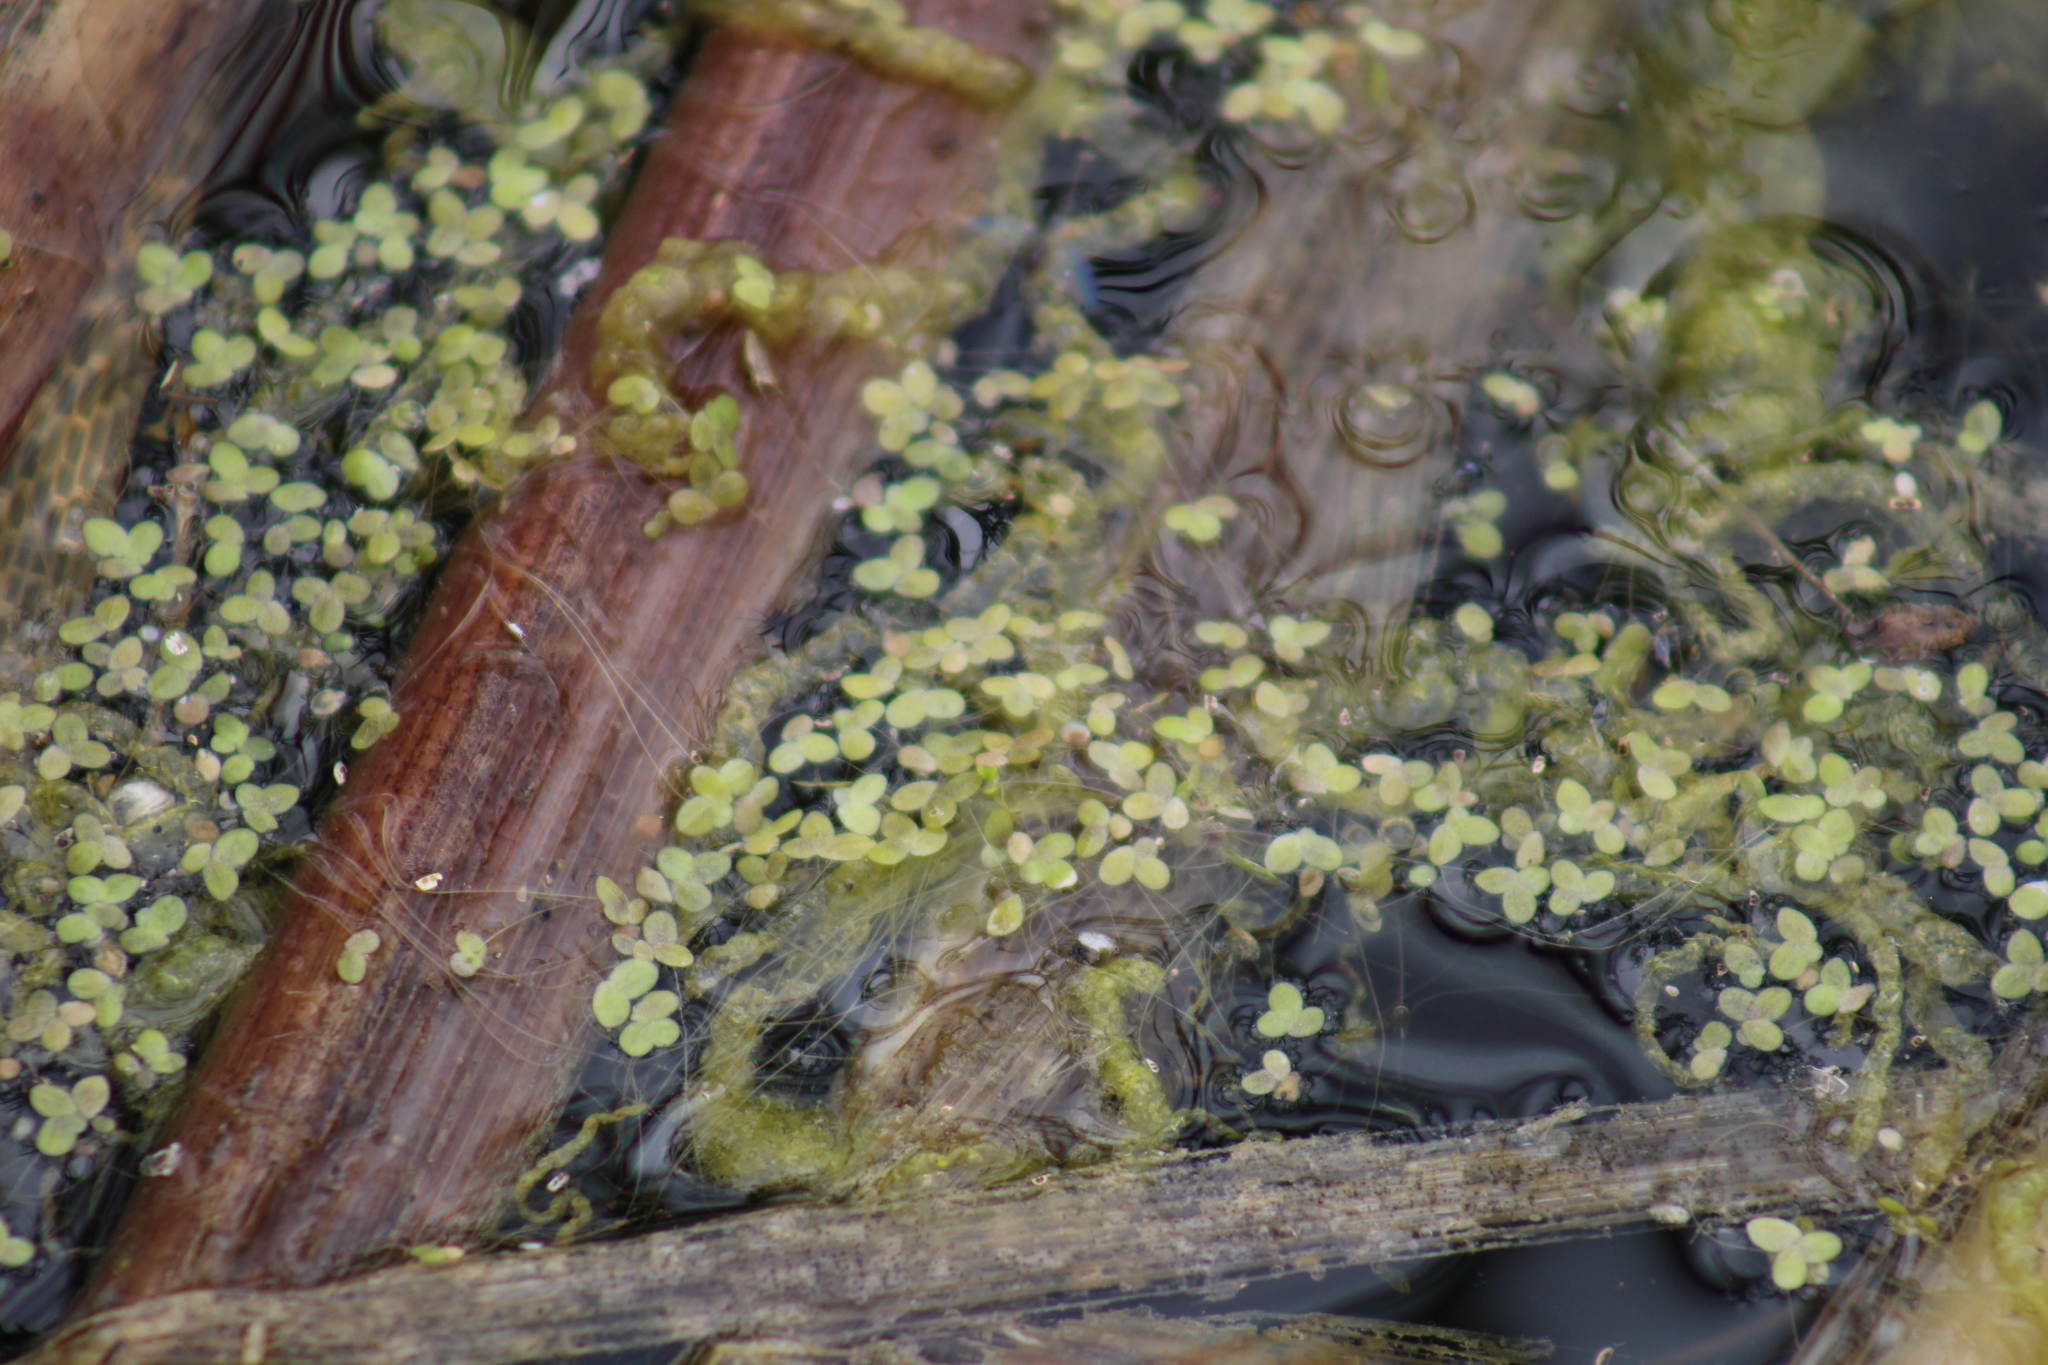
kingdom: Plantae
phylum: Tracheophyta
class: Liliopsida
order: Alismatales
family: Araceae
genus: Lemna
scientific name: Lemna turionifera
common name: Perennial duckweed
